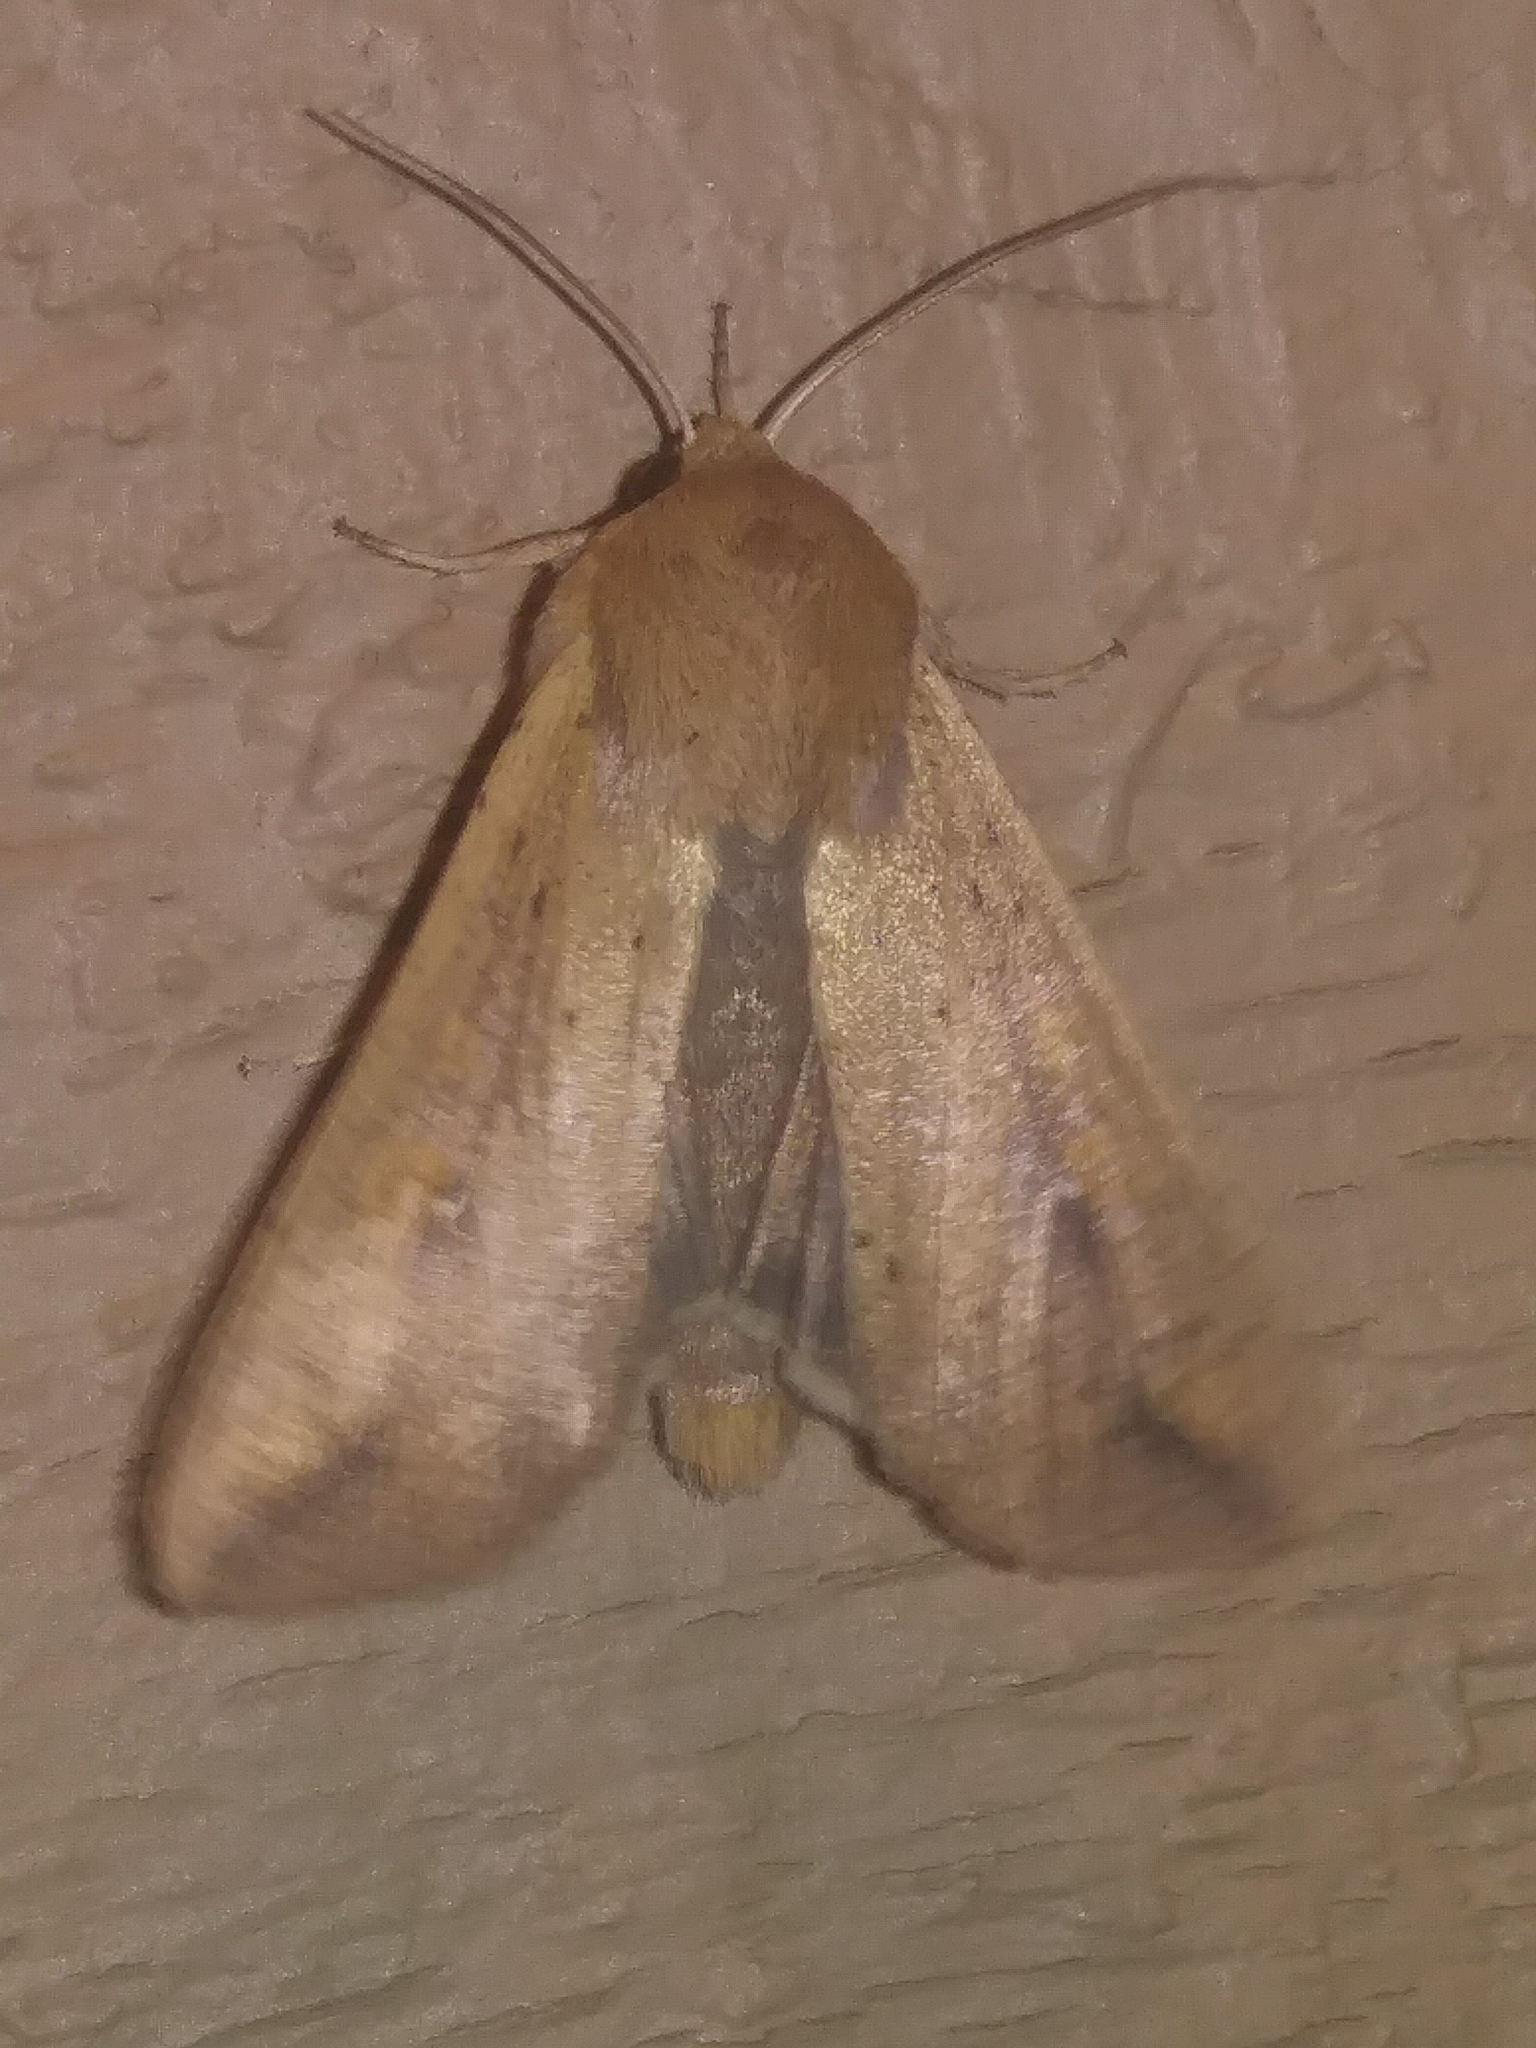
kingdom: Animalia
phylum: Arthropoda
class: Insecta
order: Lepidoptera
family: Noctuidae
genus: Mythimna
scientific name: Mythimna unipuncta
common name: White-speck
